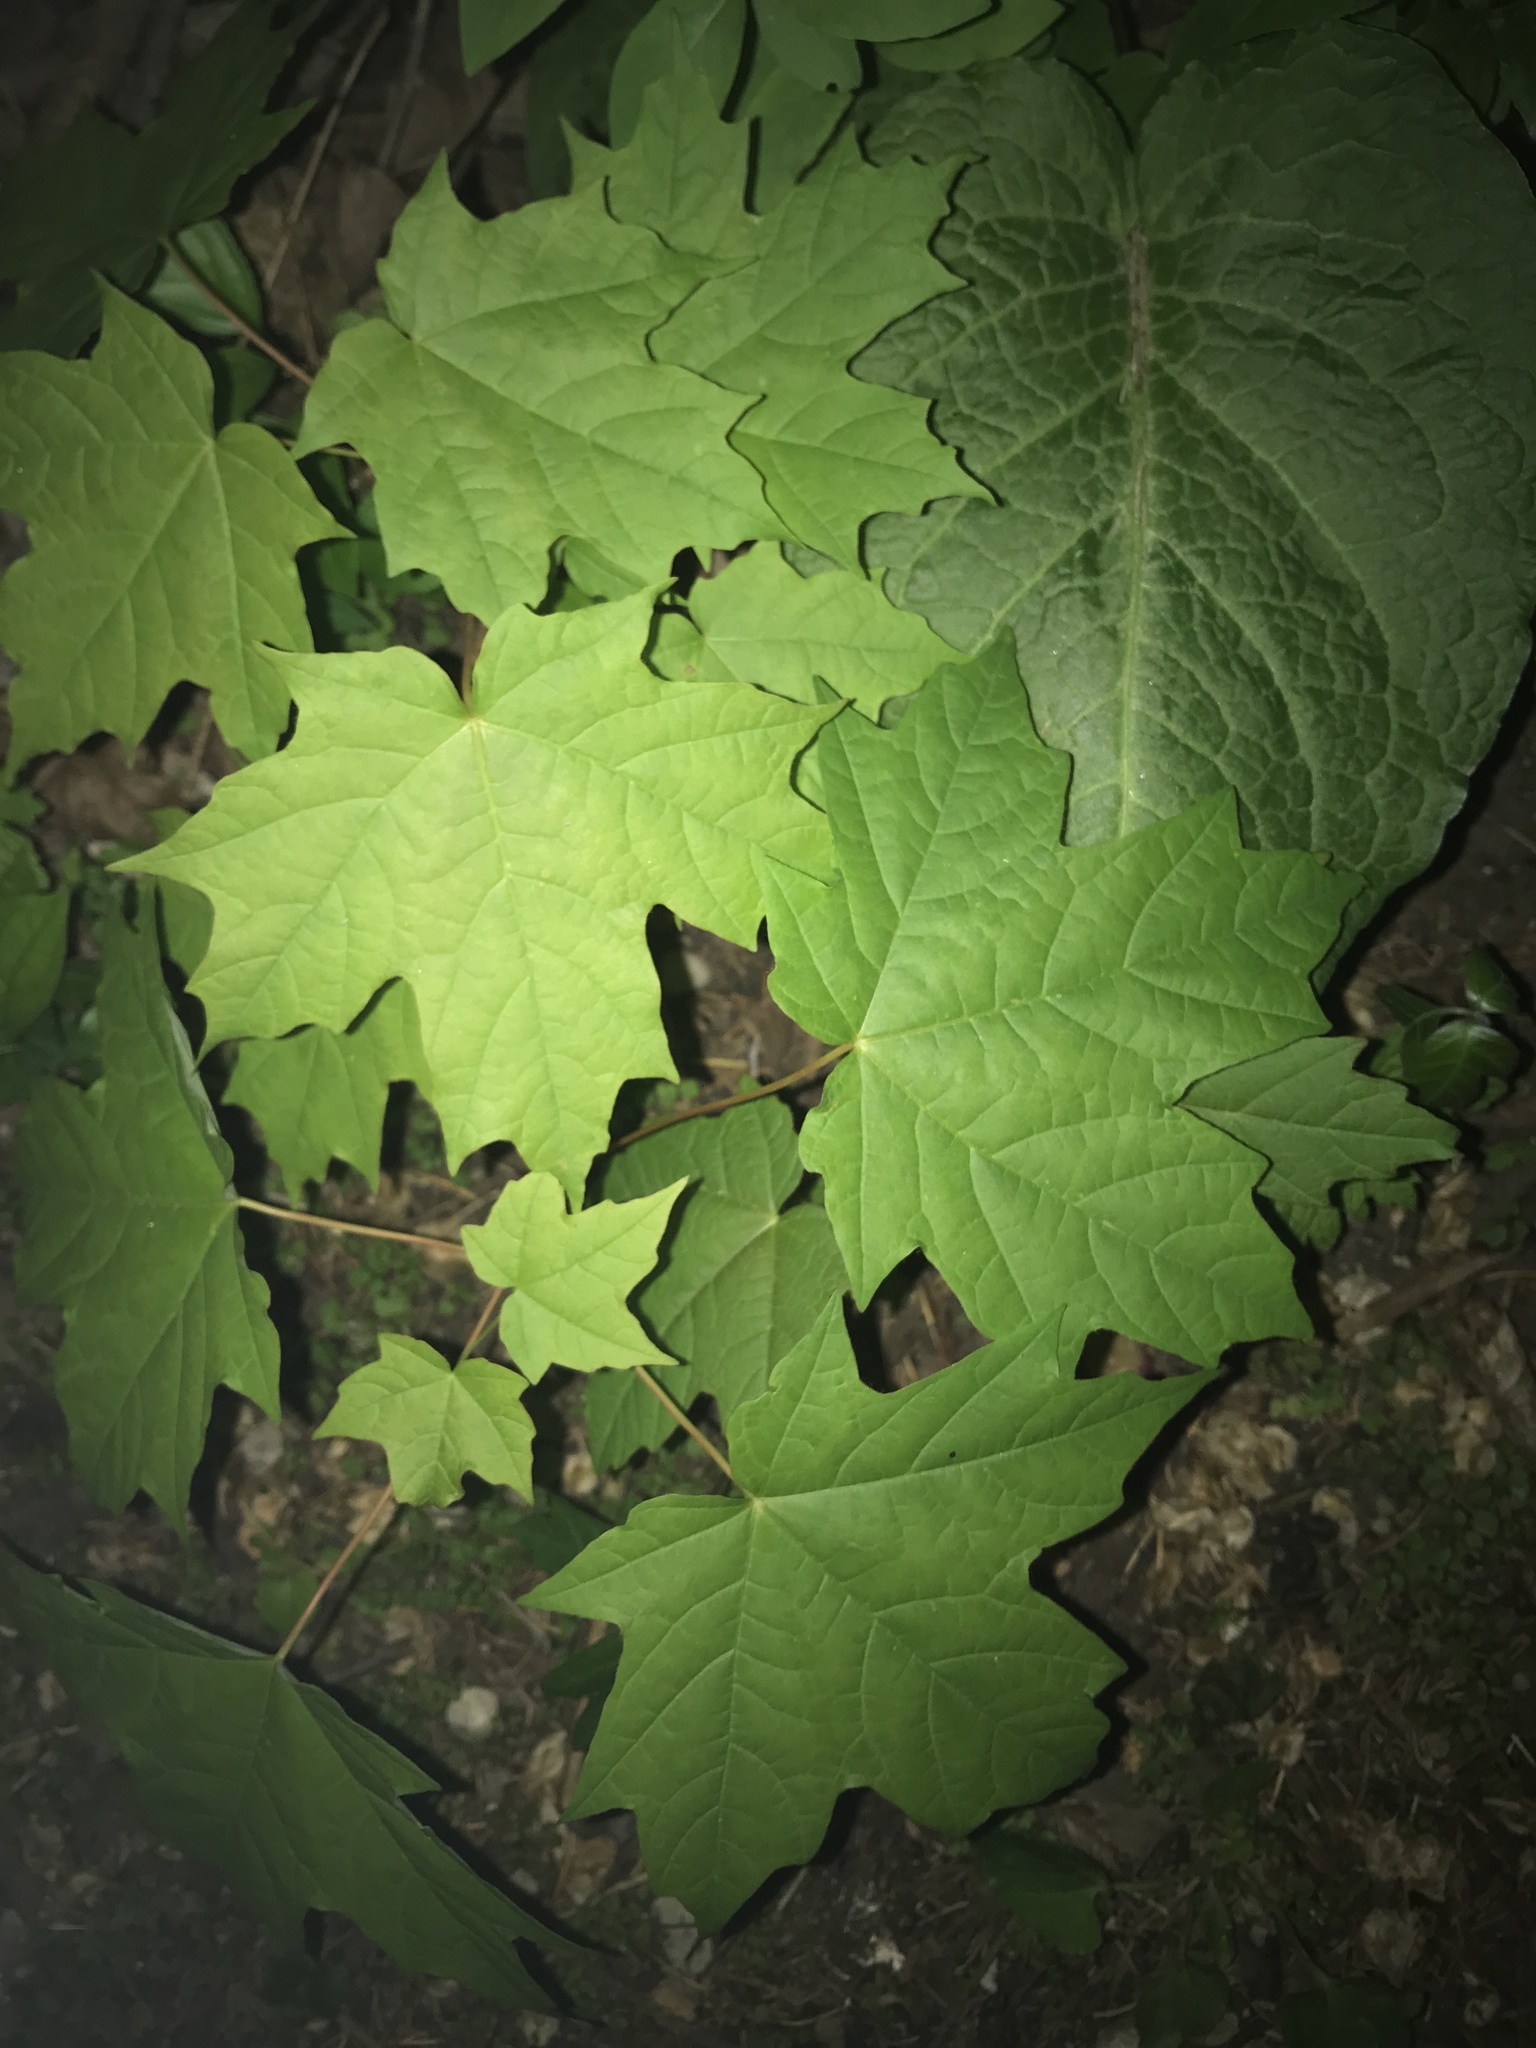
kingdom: Plantae
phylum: Tracheophyta
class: Magnoliopsida
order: Sapindales
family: Sapindaceae
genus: Acer
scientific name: Acer saccharum
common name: Sugar maple
